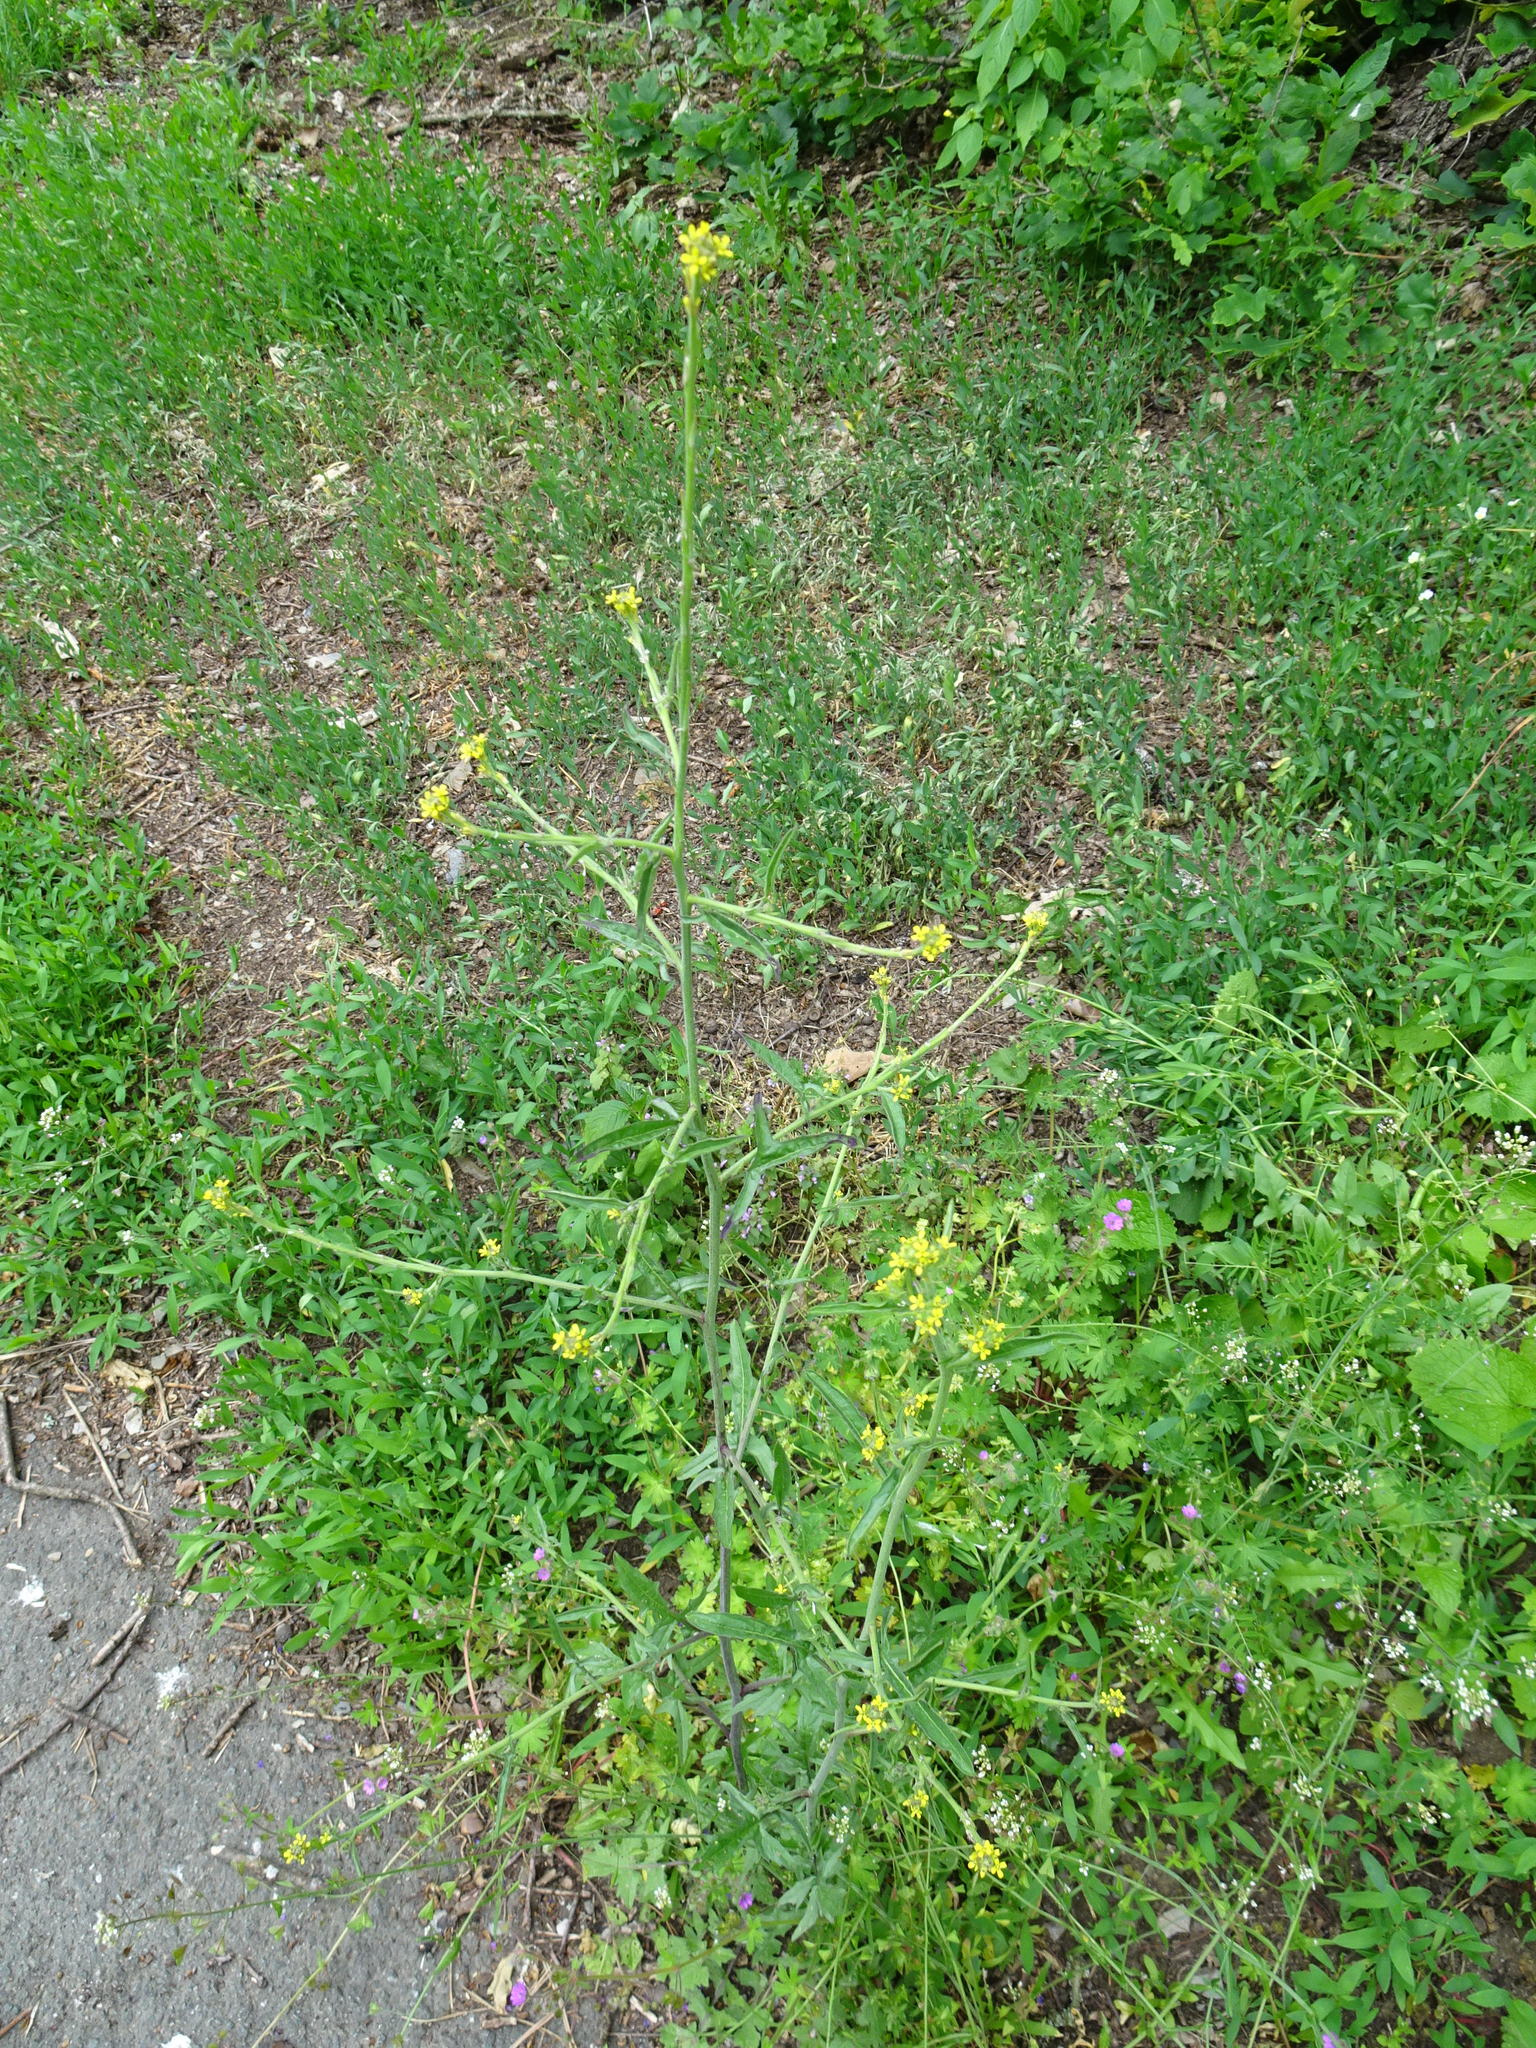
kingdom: Plantae
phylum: Tracheophyta
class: Magnoliopsida
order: Brassicales
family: Brassicaceae
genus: Sisymbrium
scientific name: Sisymbrium officinale
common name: Hedge mustard
